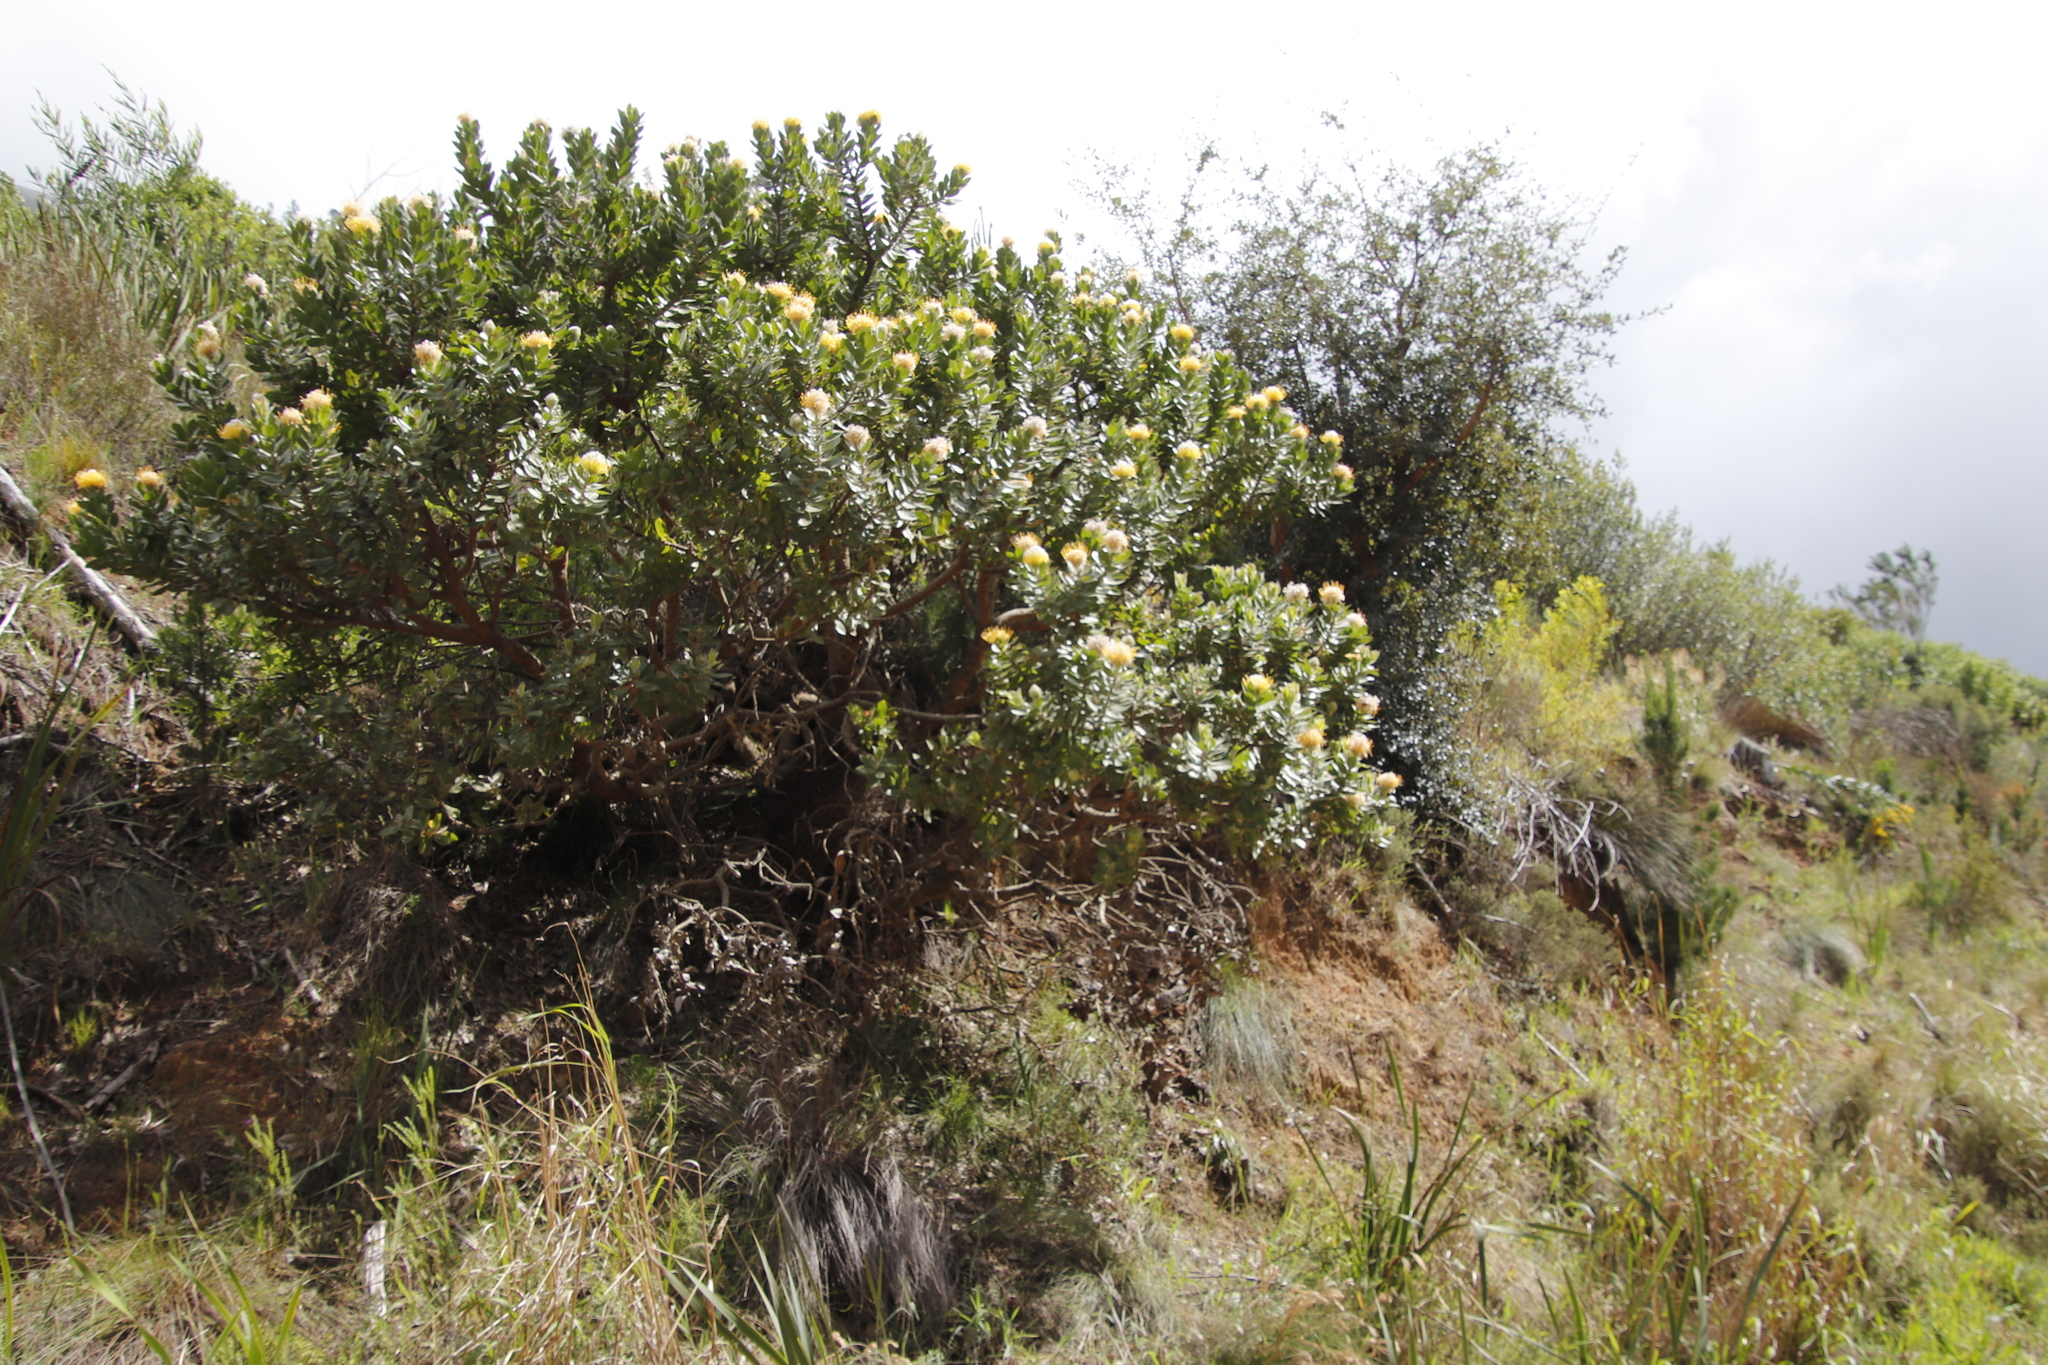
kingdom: Plantae
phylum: Tracheophyta
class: Magnoliopsida
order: Proteales
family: Proteaceae
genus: Leucospermum
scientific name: Leucospermum conocarpodendron
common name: Tree pincushion
